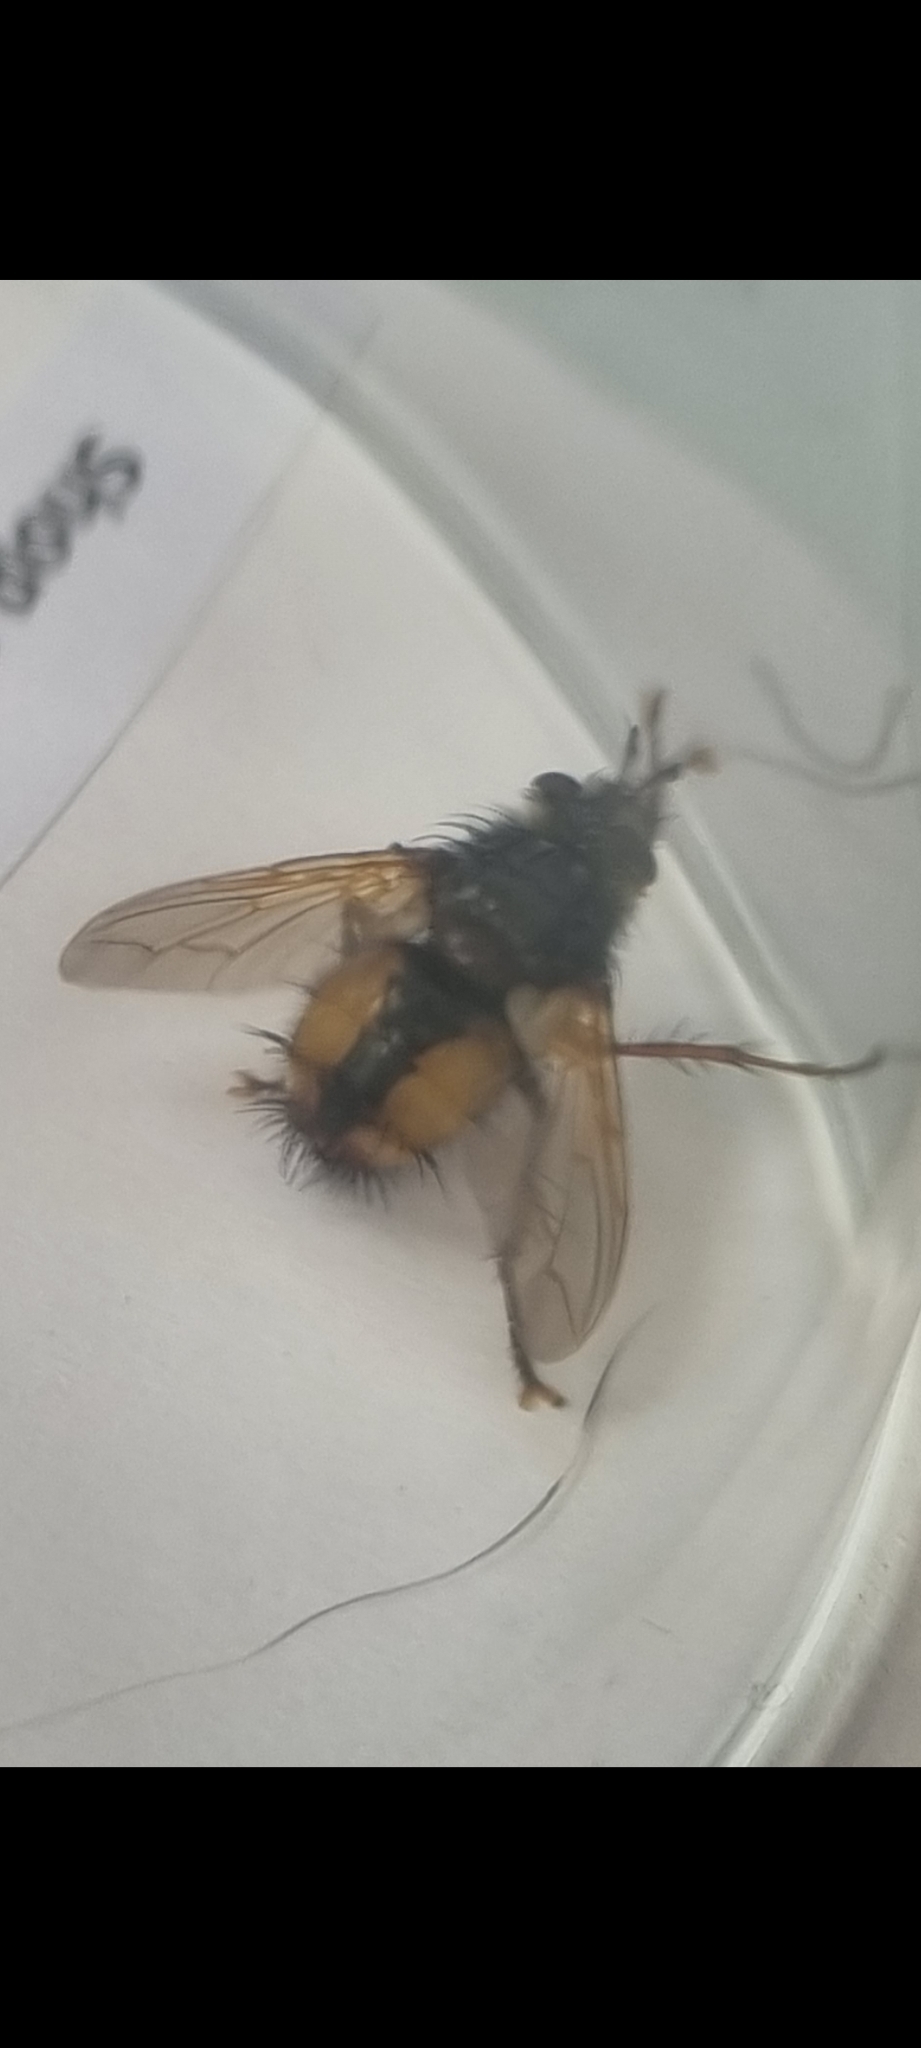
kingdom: Animalia
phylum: Arthropoda
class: Insecta
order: Diptera
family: Tachinidae
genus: Tachina
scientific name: Tachina fera
